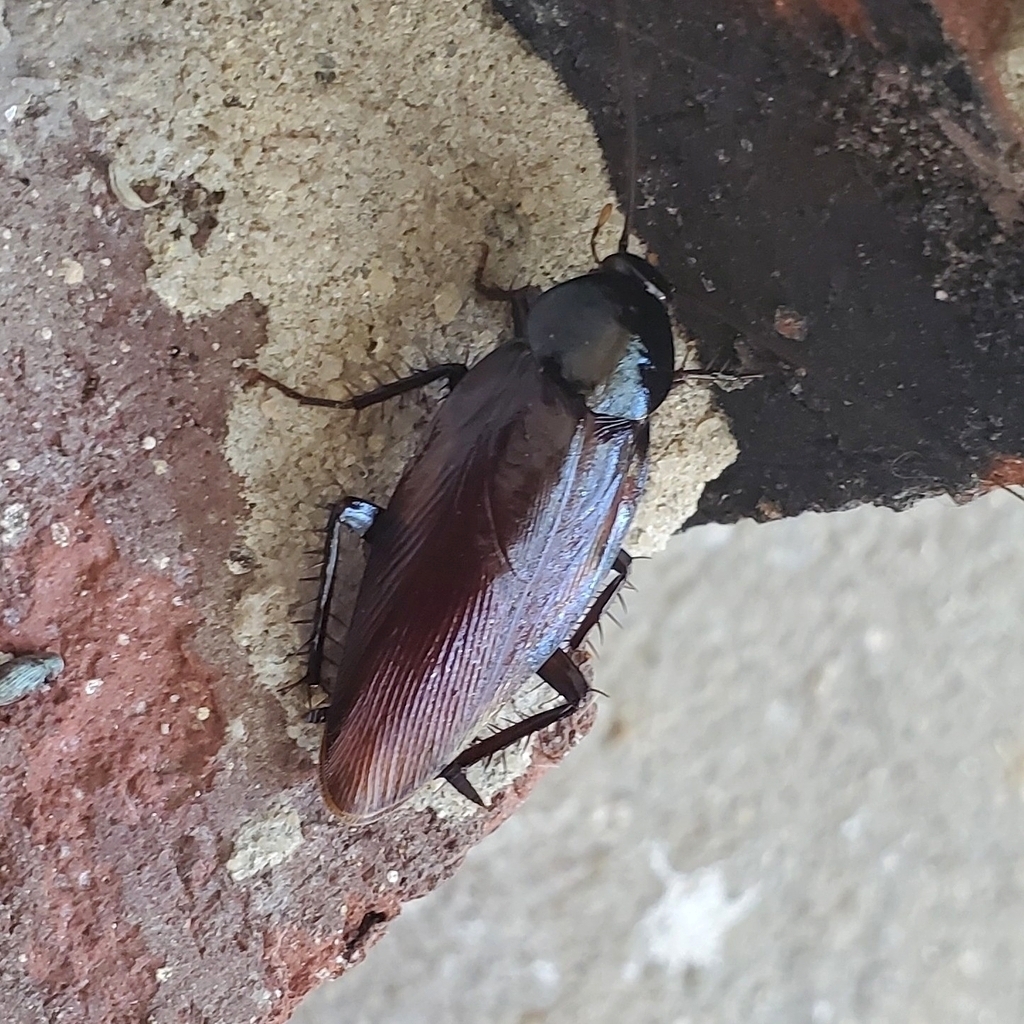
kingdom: Animalia
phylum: Arthropoda
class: Insecta
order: Blattodea
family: Blattidae
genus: Periplaneta
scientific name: Periplaneta fuliginosa
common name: Smokeybrown cockroad
